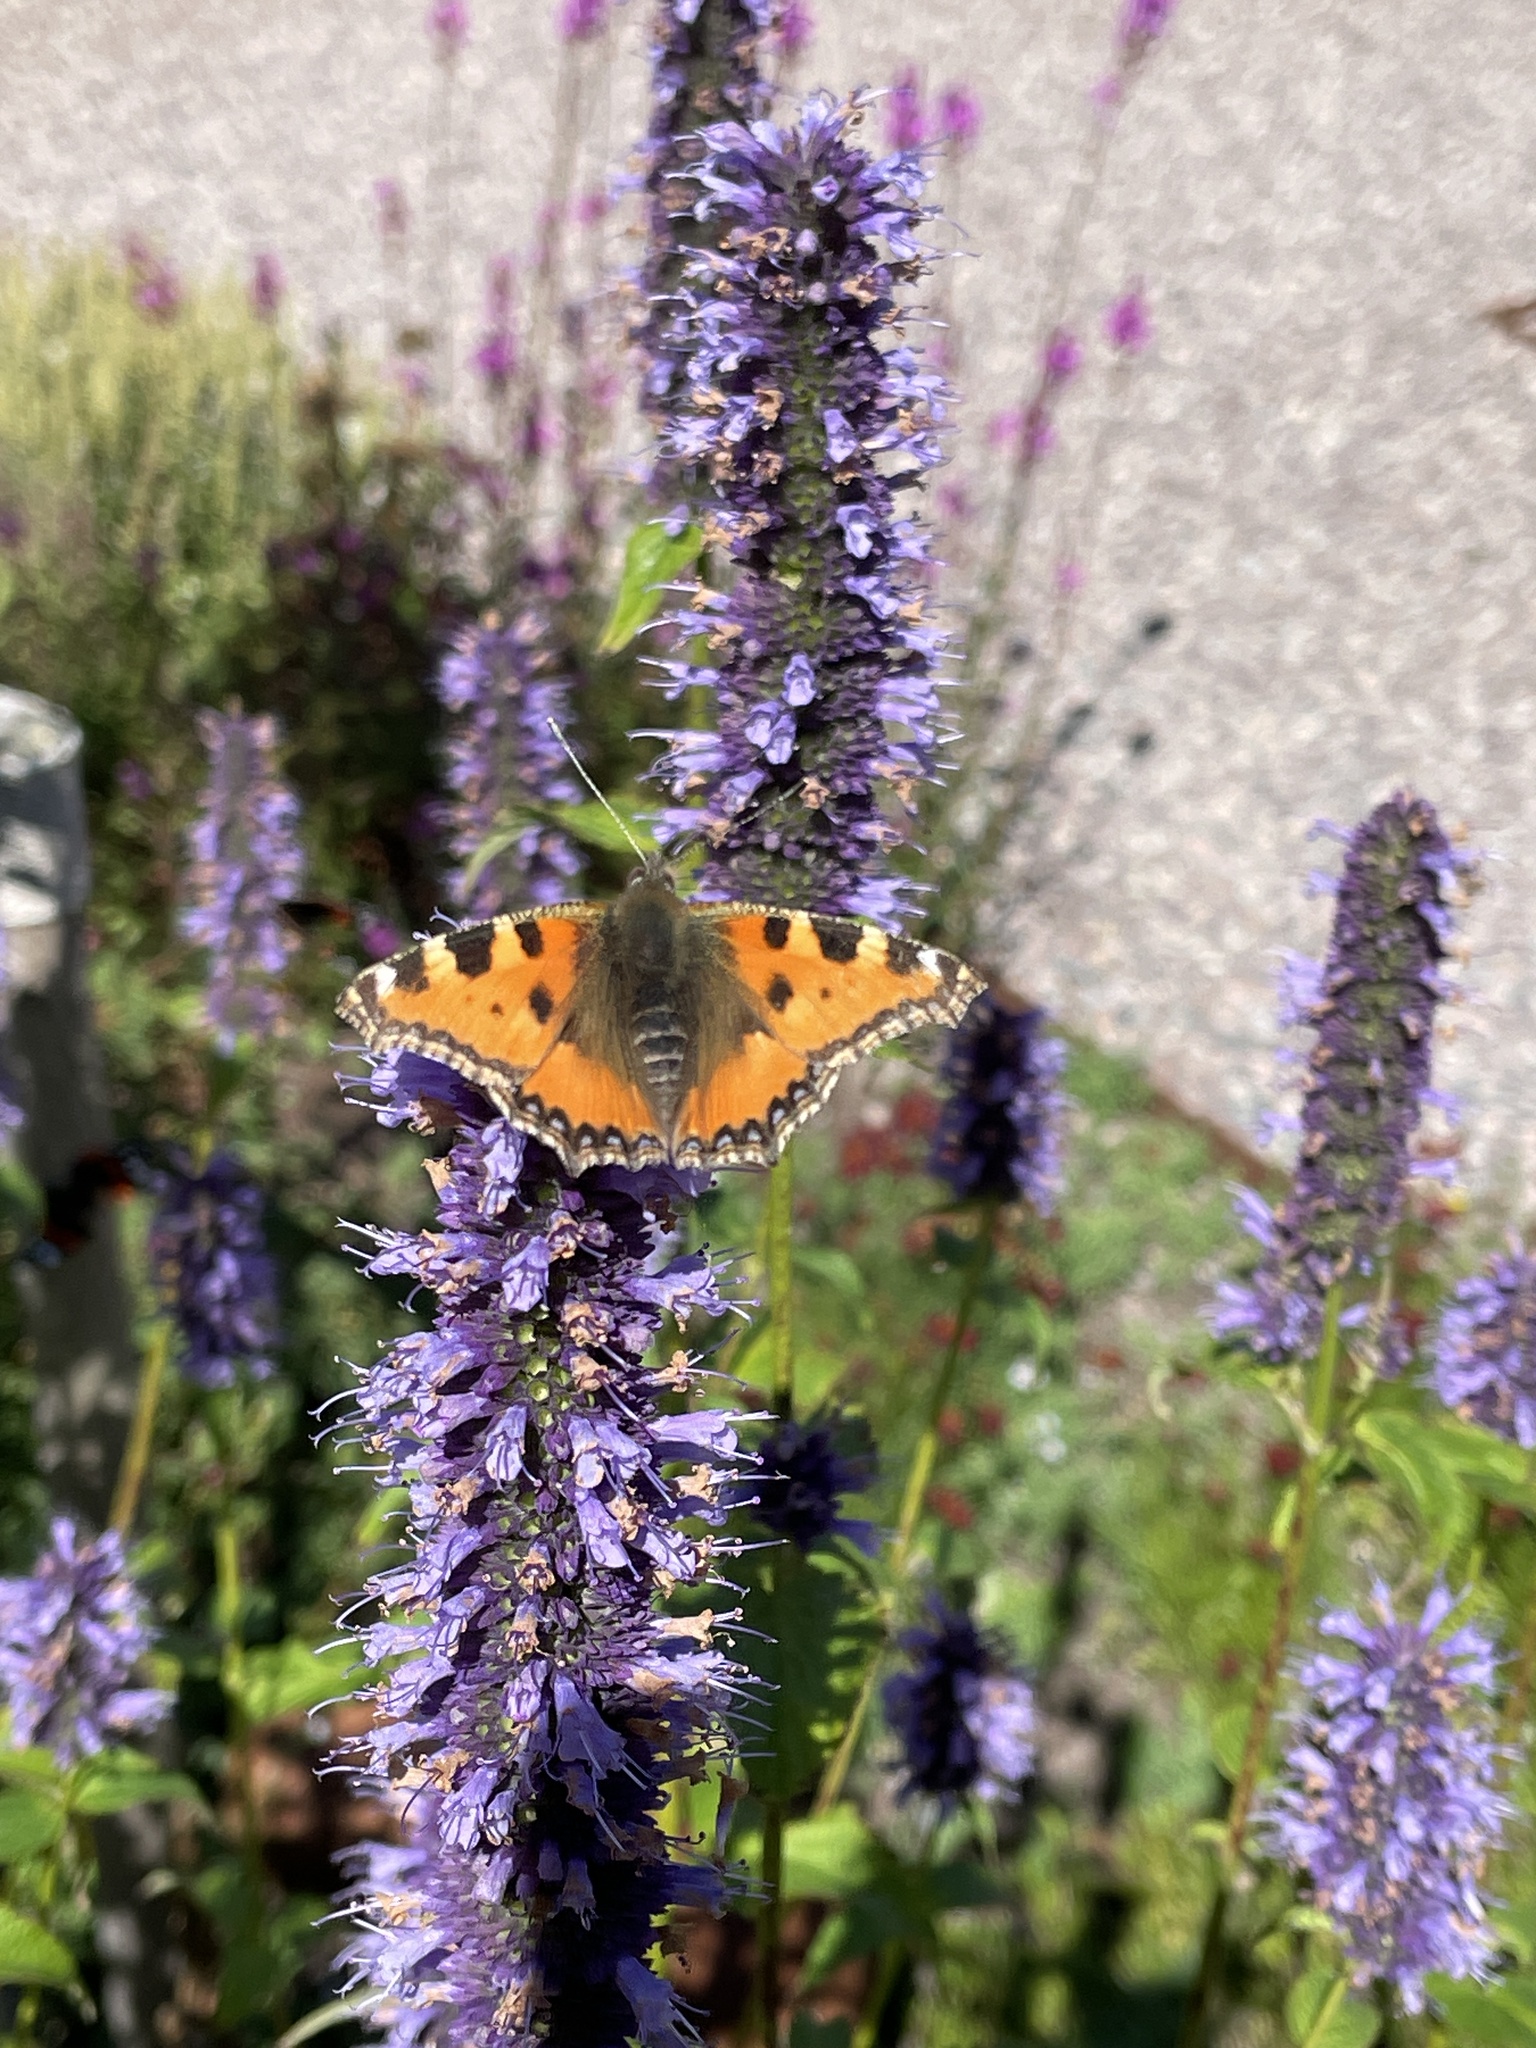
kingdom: Animalia
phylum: Arthropoda
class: Insecta
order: Lepidoptera
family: Nymphalidae
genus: Aglais
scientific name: Aglais urticae
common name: Small tortoiseshell
